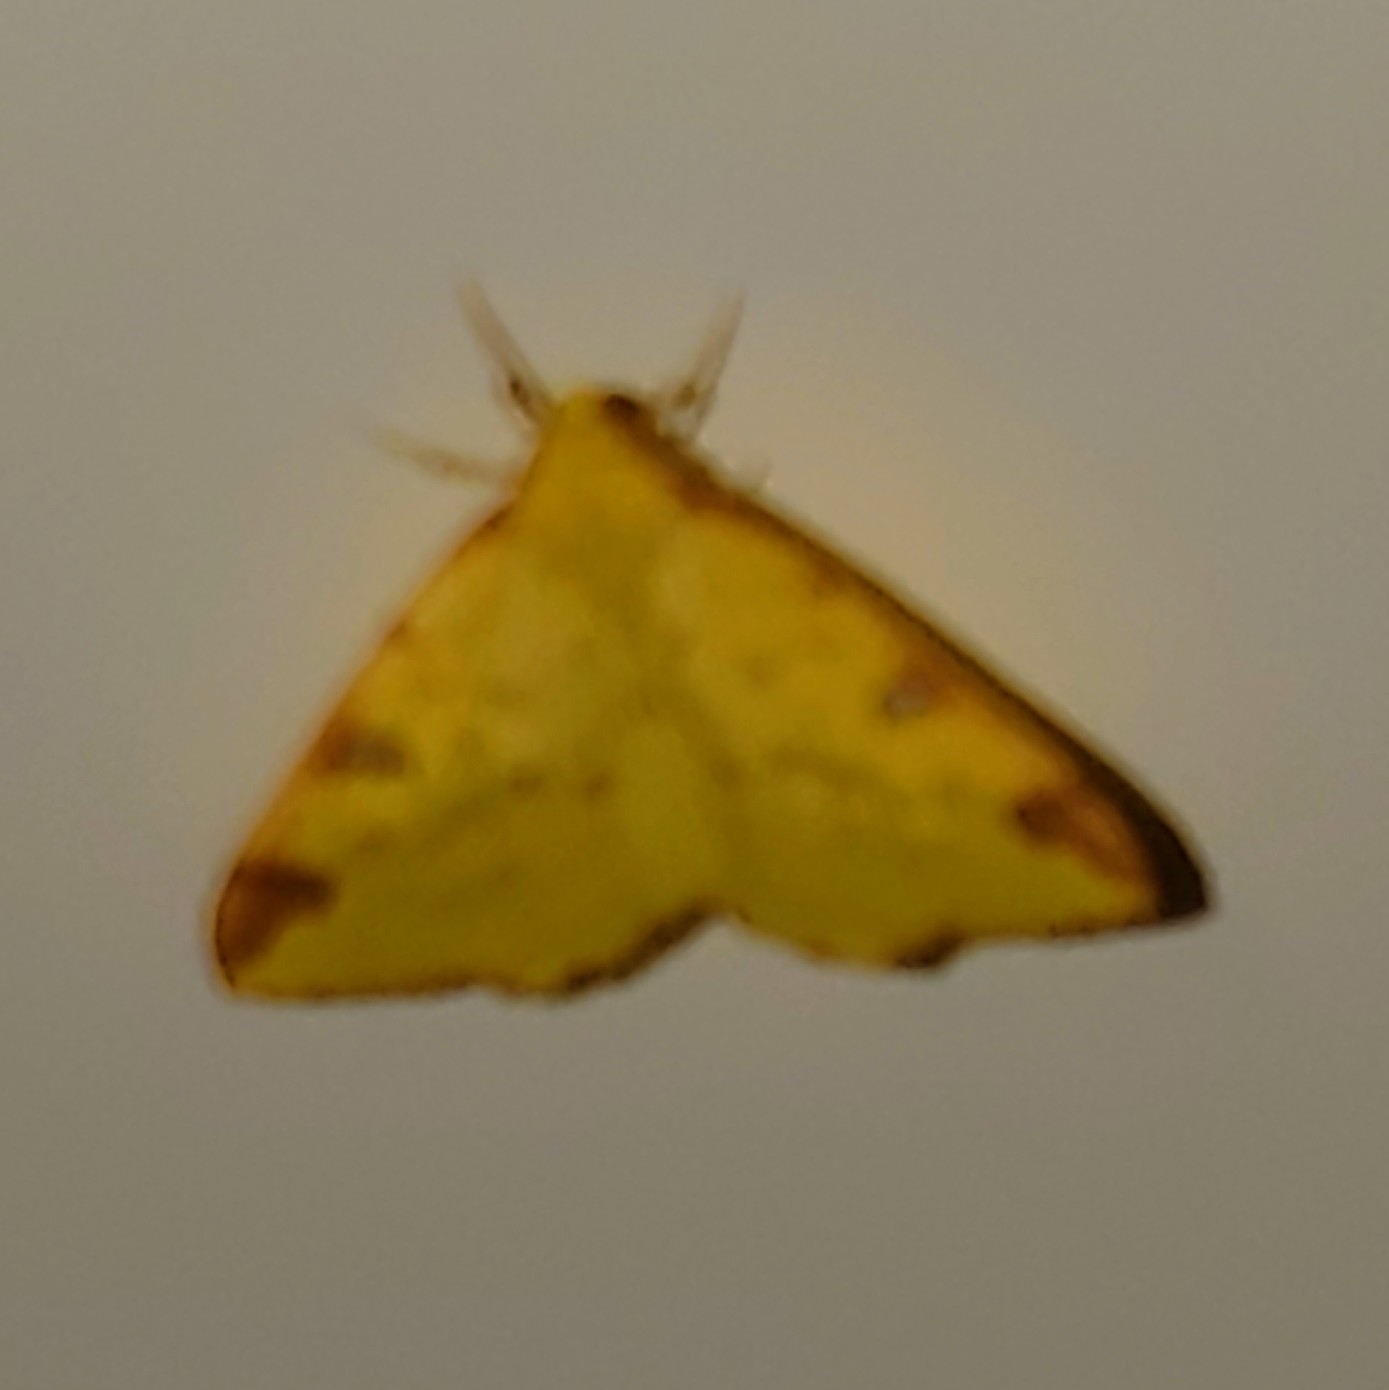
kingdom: Animalia
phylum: Arthropoda
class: Insecta
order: Lepidoptera
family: Geometridae
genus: Opisthograptis
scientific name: Opisthograptis luteolata
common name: Brimstone moth
